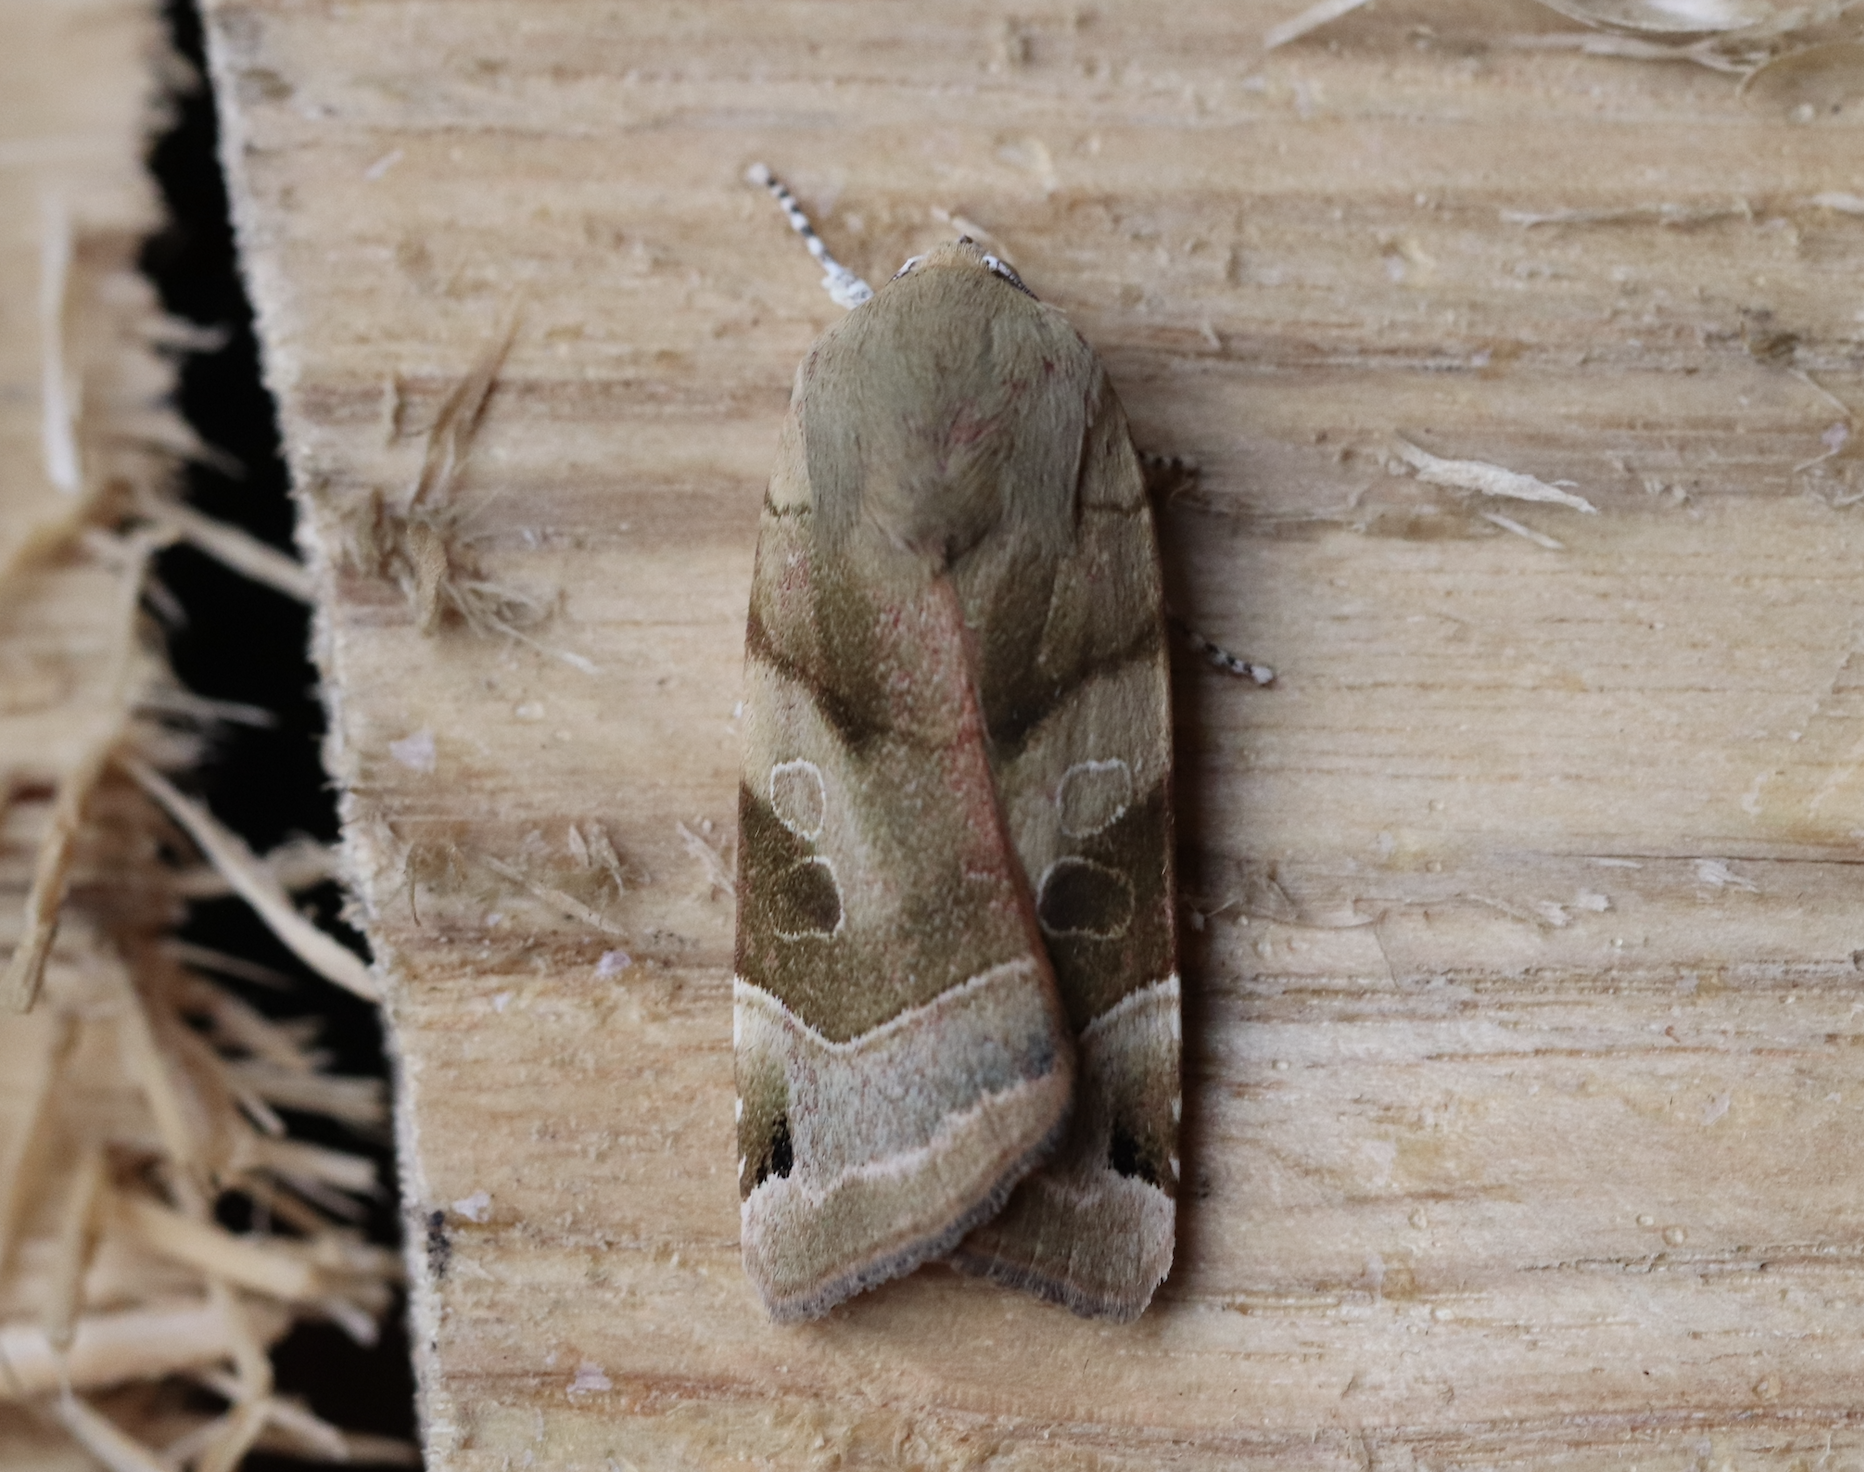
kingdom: Animalia
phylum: Arthropoda
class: Insecta
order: Lepidoptera
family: Noctuidae
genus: Noctua
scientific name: Noctua fimbriata
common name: Broad-bordered yellow underwing
